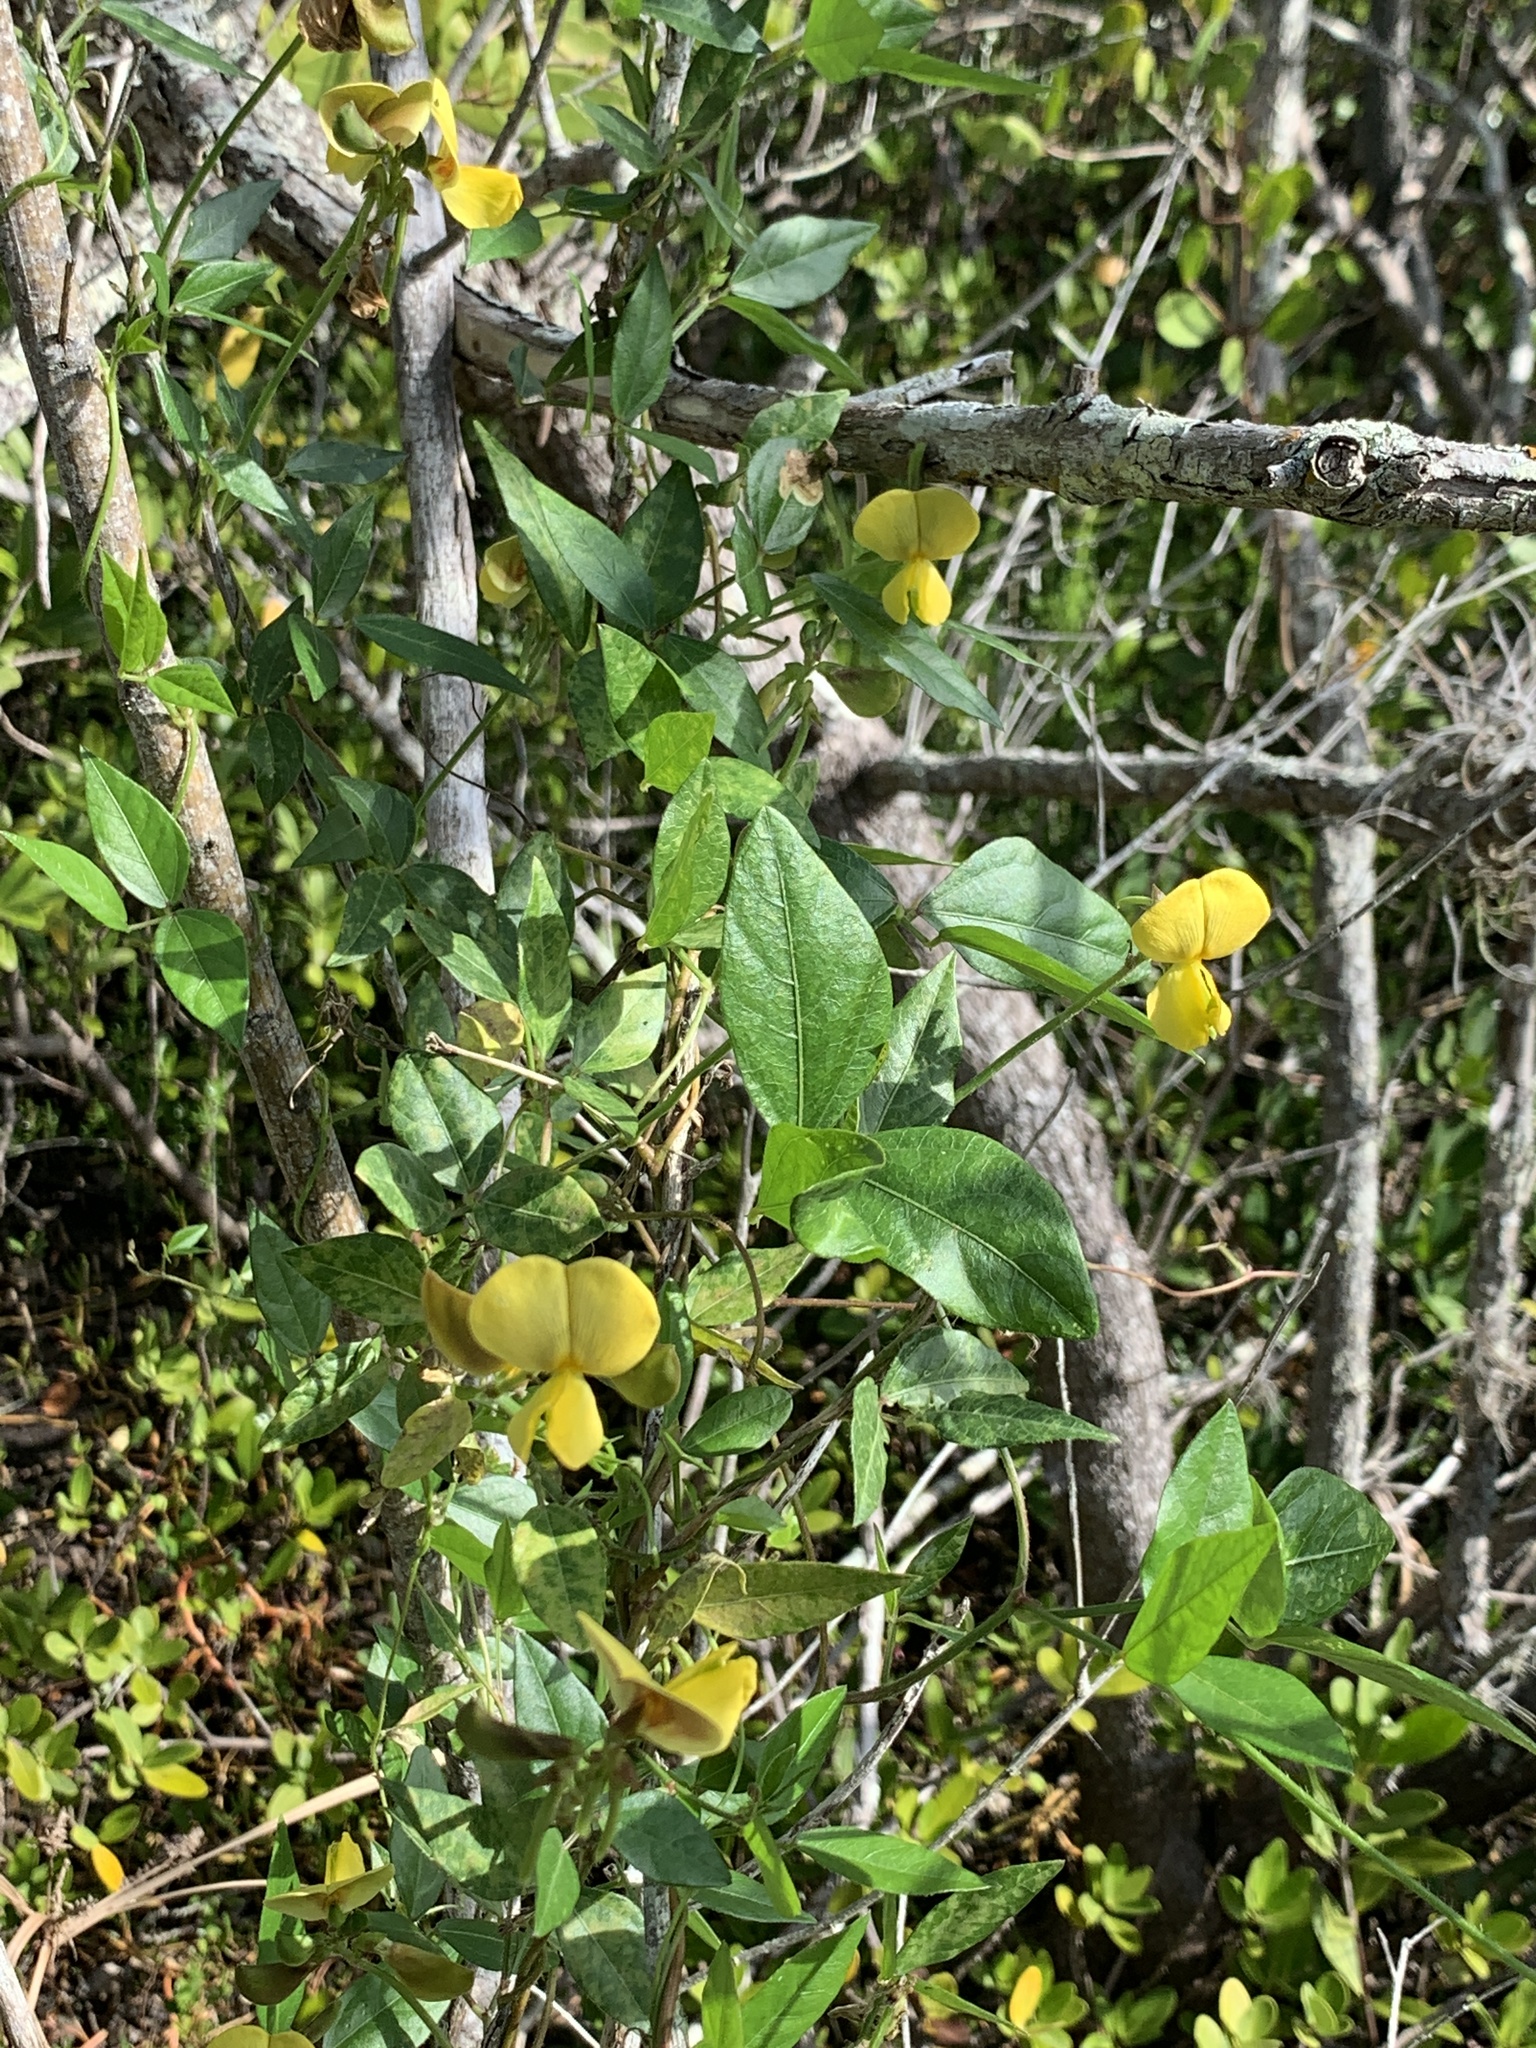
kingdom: Plantae
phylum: Tracheophyta
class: Magnoliopsida
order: Fabales
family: Fabaceae
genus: Vigna
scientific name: Vigna luteola
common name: Hairypod cowpea
